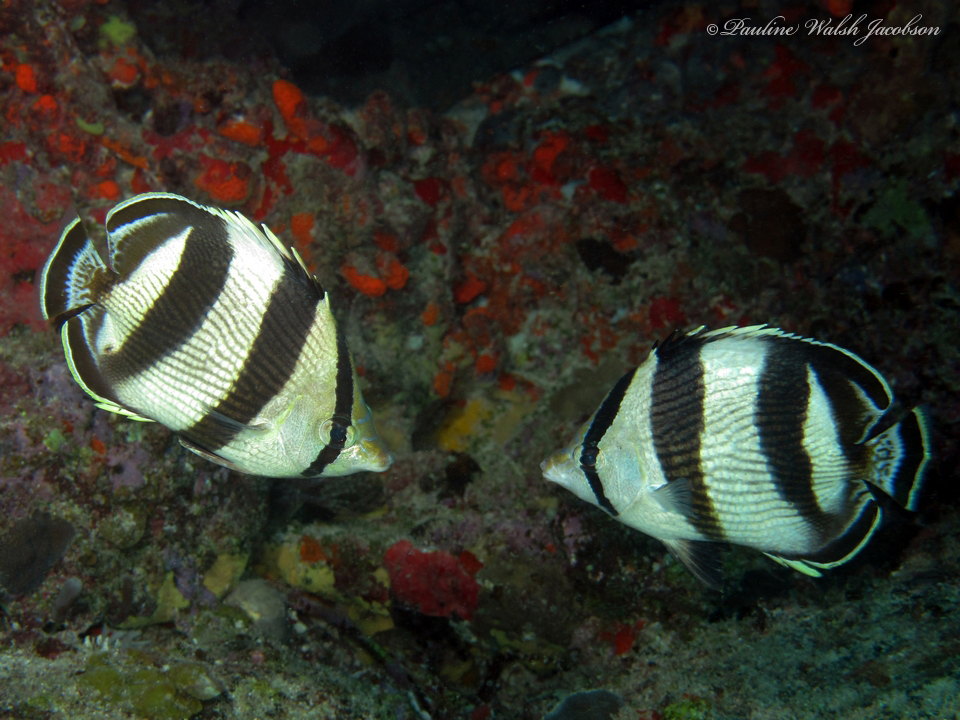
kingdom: Animalia
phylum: Chordata
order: Perciformes
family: Chaetodontidae
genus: Chaetodon
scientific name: Chaetodon striatus
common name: Banded butterflyfish
